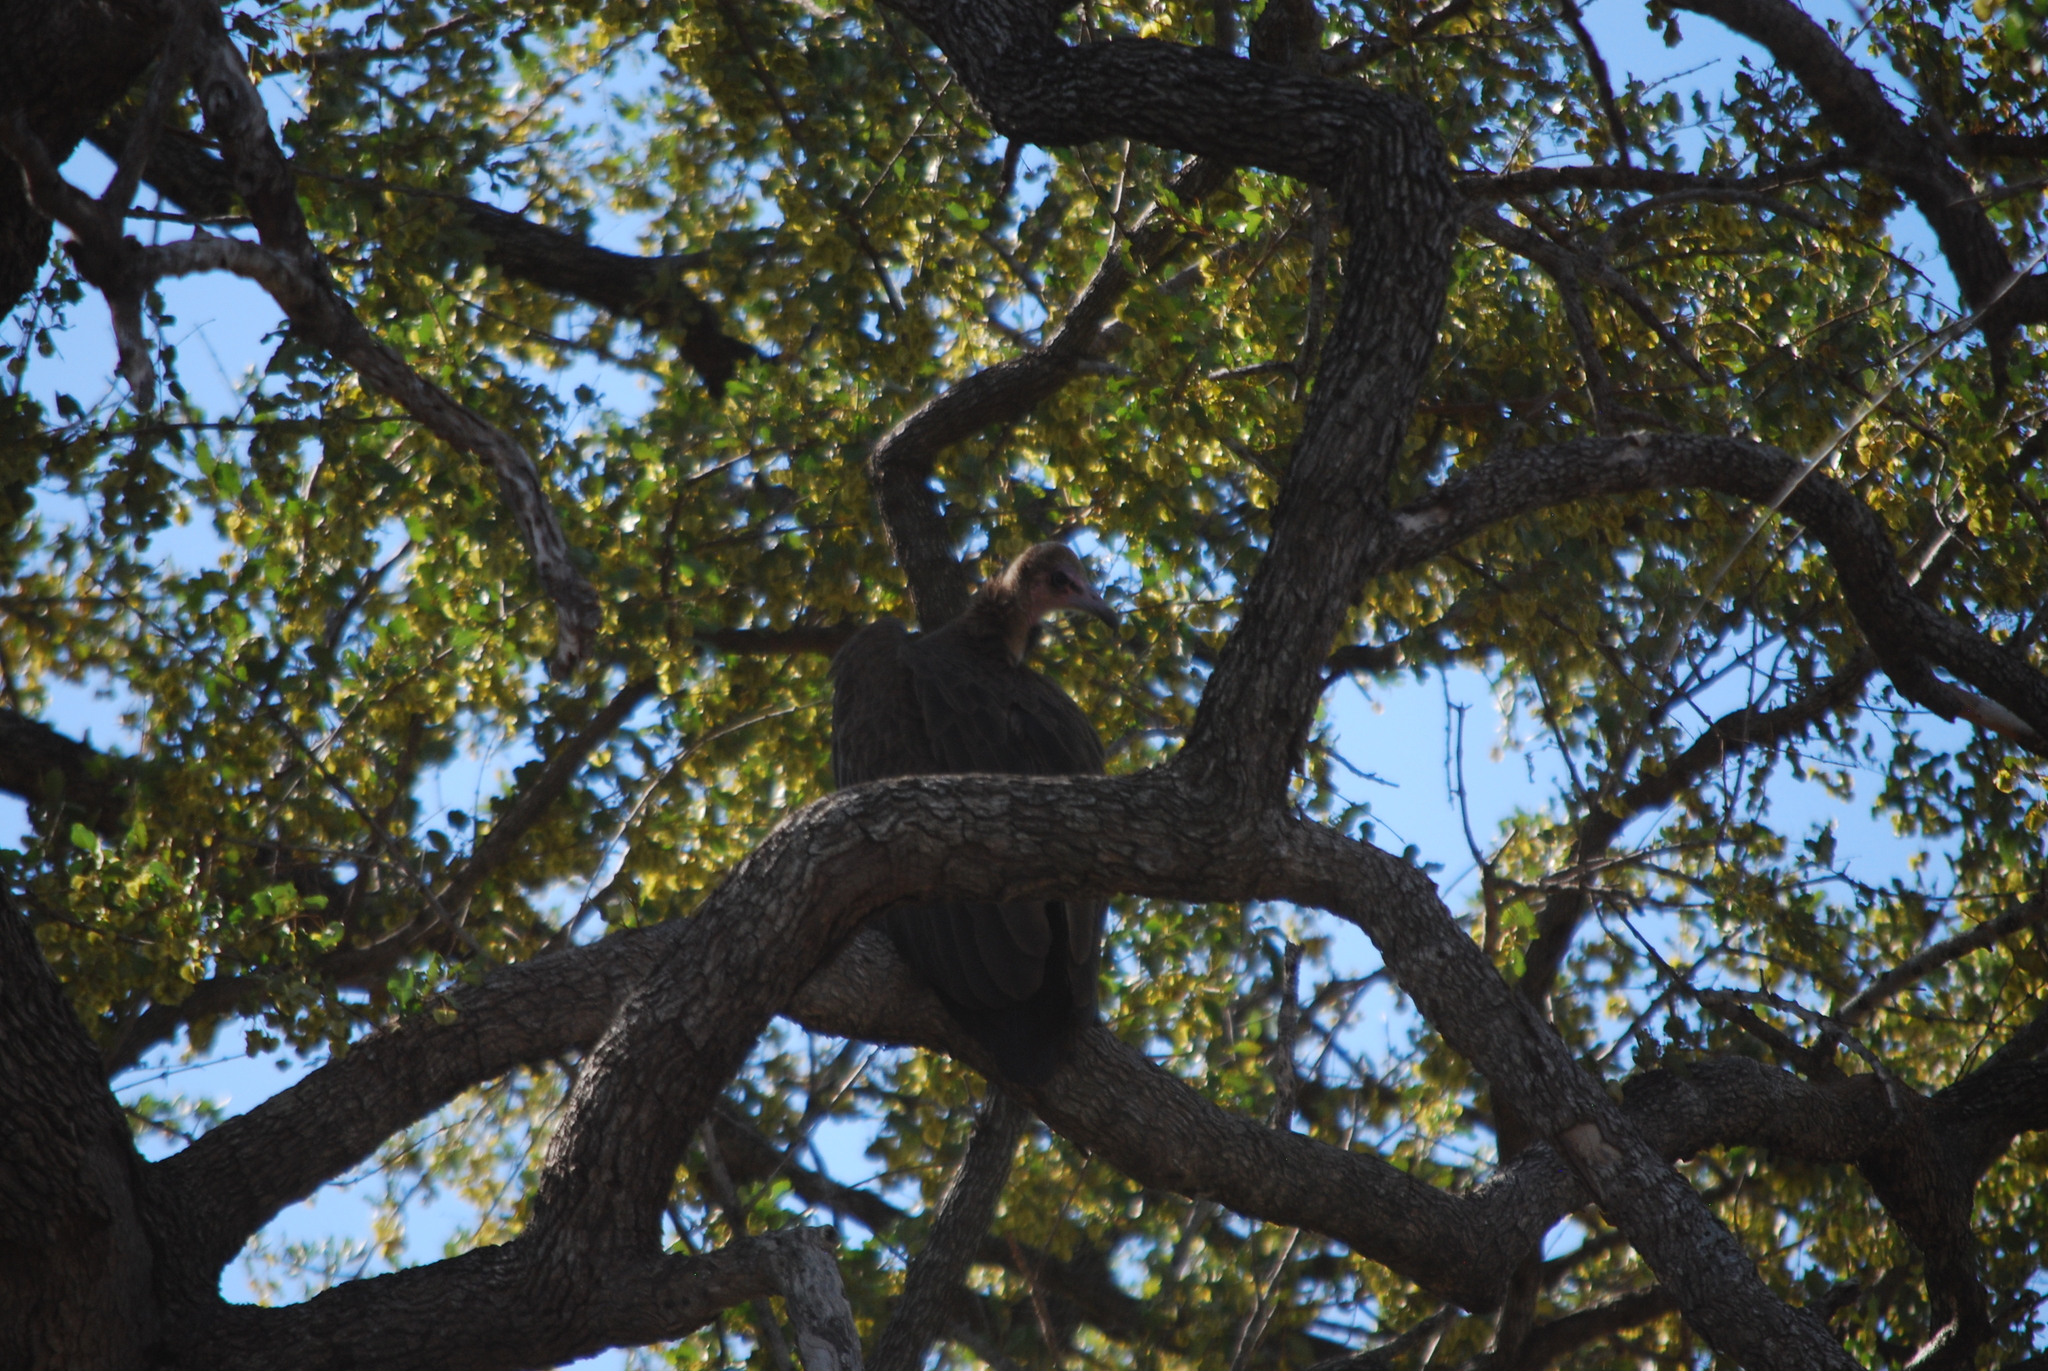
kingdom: Animalia
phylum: Chordata
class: Aves
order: Accipitriformes
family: Accipitridae
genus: Necrosyrtes
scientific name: Necrosyrtes monachus
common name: Hooded vulture
